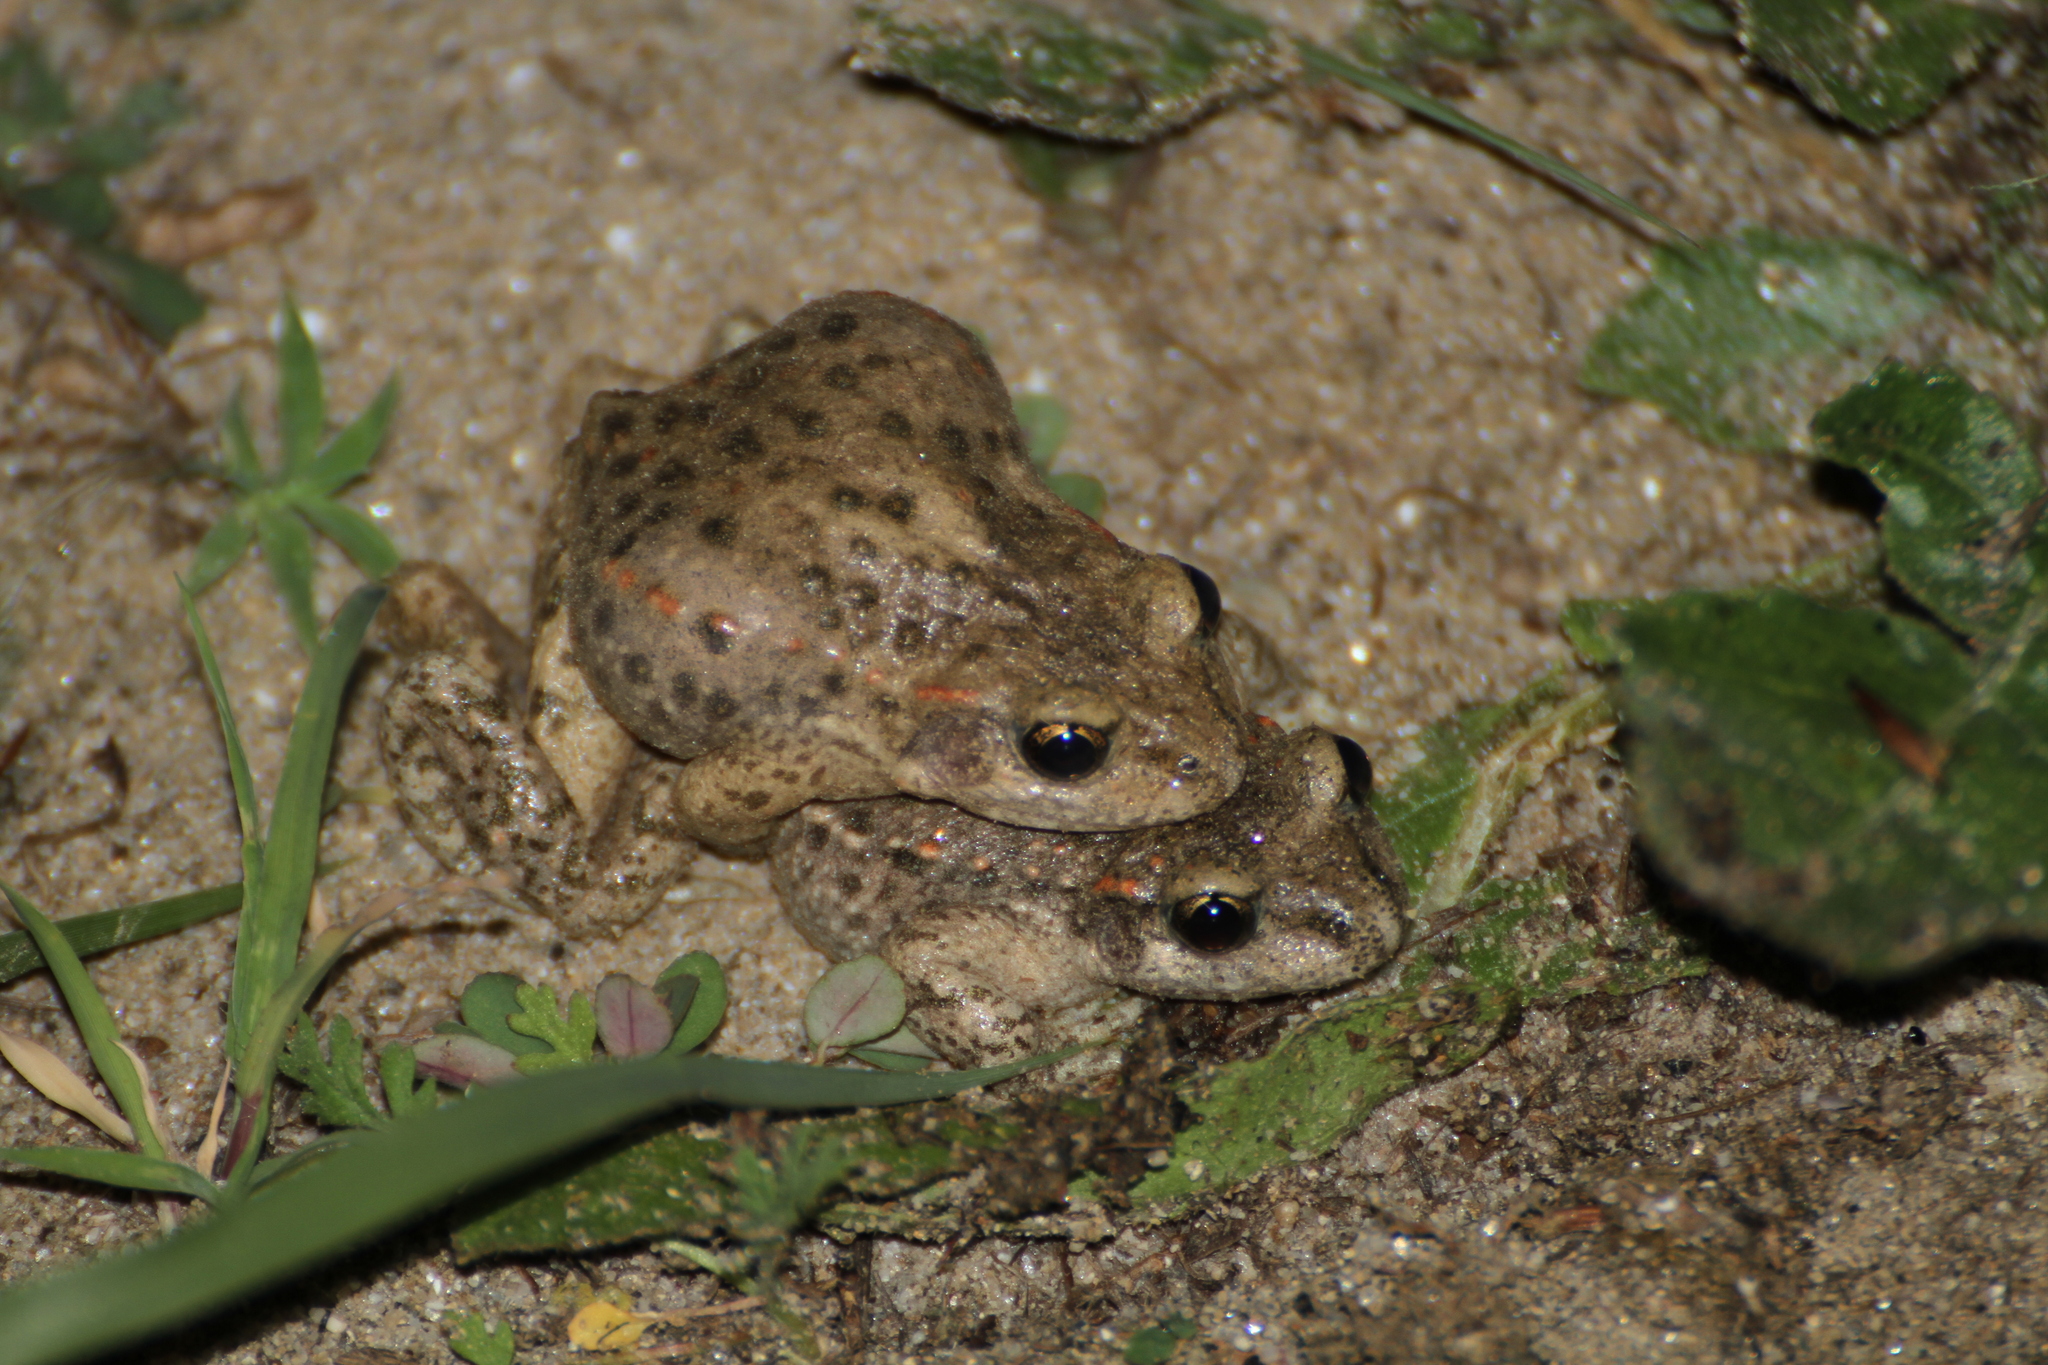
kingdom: Animalia
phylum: Chordata
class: Amphibia
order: Anura
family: Alytidae
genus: Alytes
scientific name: Alytes obstetricans
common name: Midwife toad
